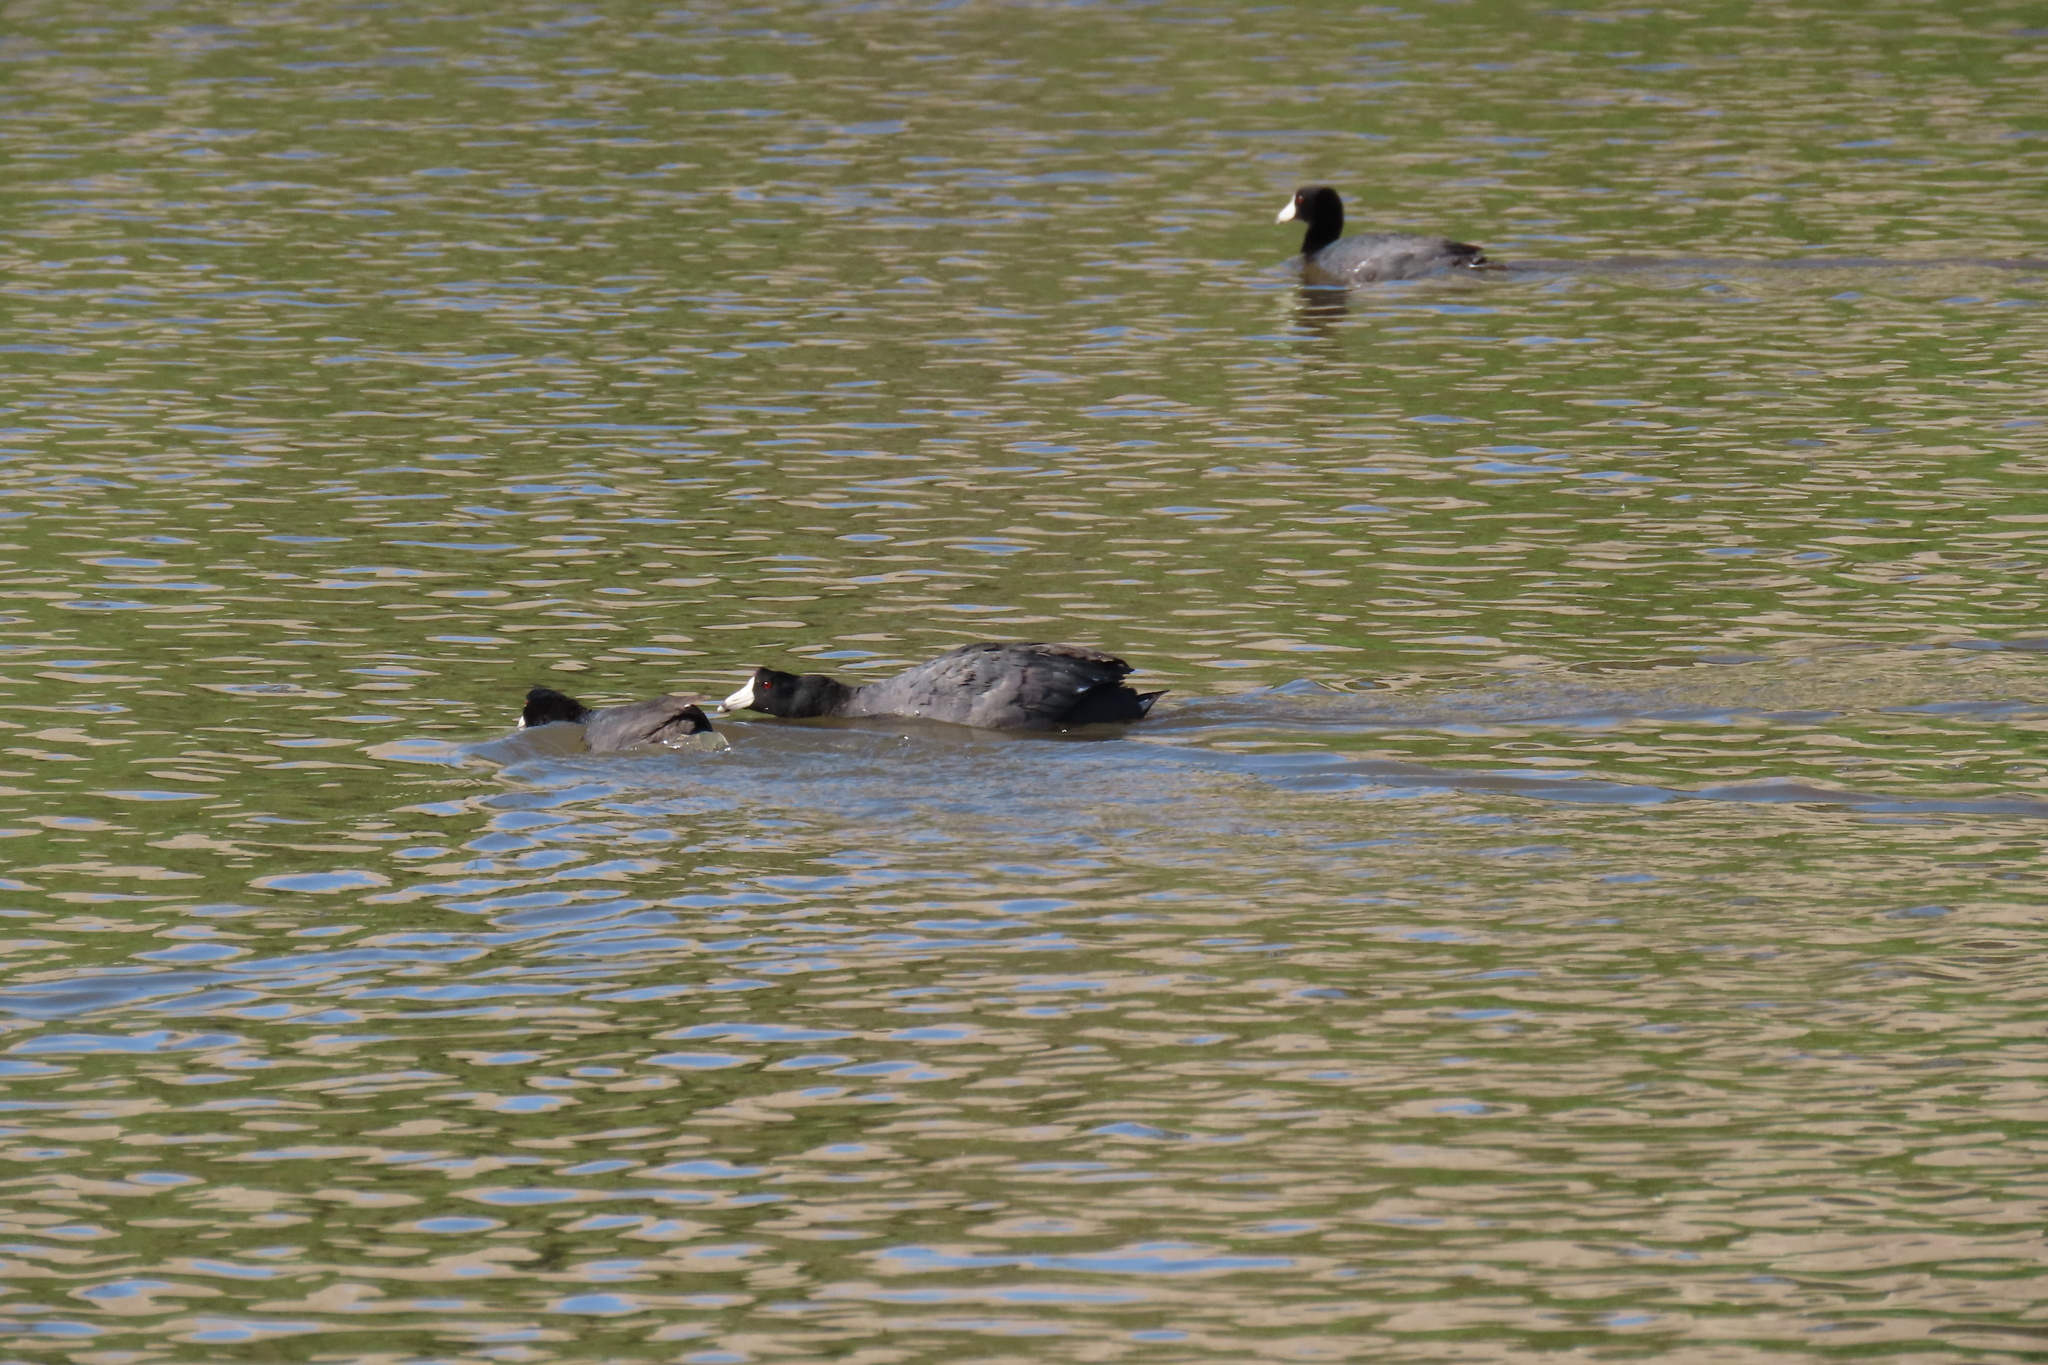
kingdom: Animalia
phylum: Chordata
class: Aves
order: Gruiformes
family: Rallidae
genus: Fulica
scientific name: Fulica americana
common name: American coot
